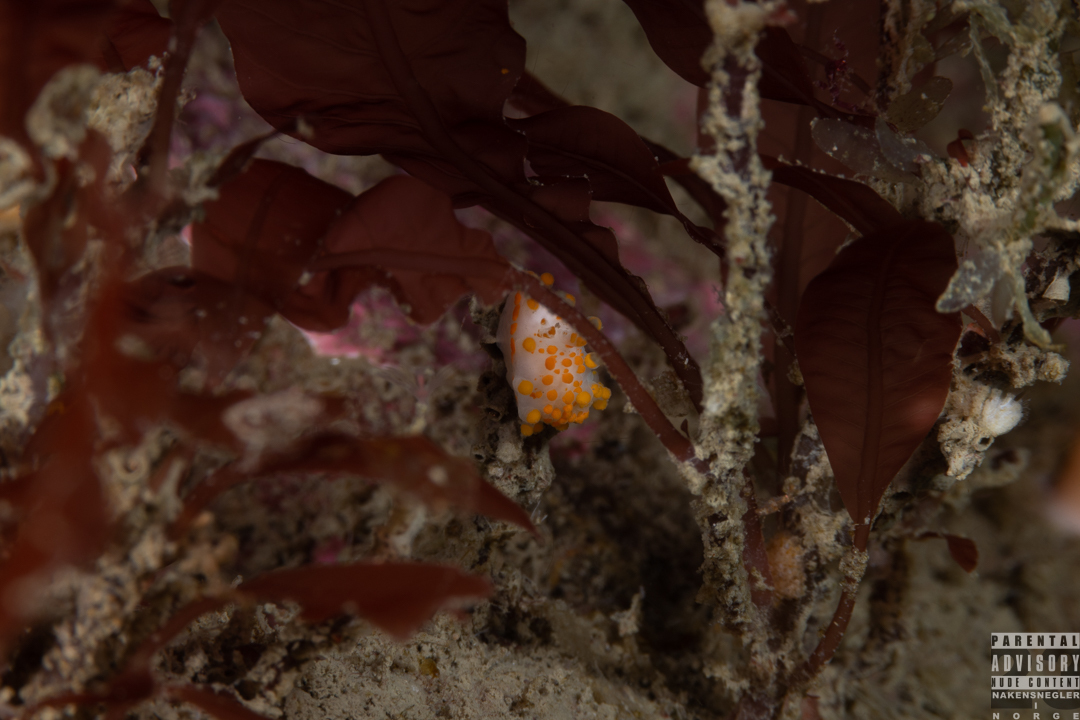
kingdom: Animalia
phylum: Mollusca
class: Gastropoda
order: Nudibranchia
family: Polyceridae
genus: Limacia
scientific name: Limacia clavigera
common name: Orange-clubbed sea slug
